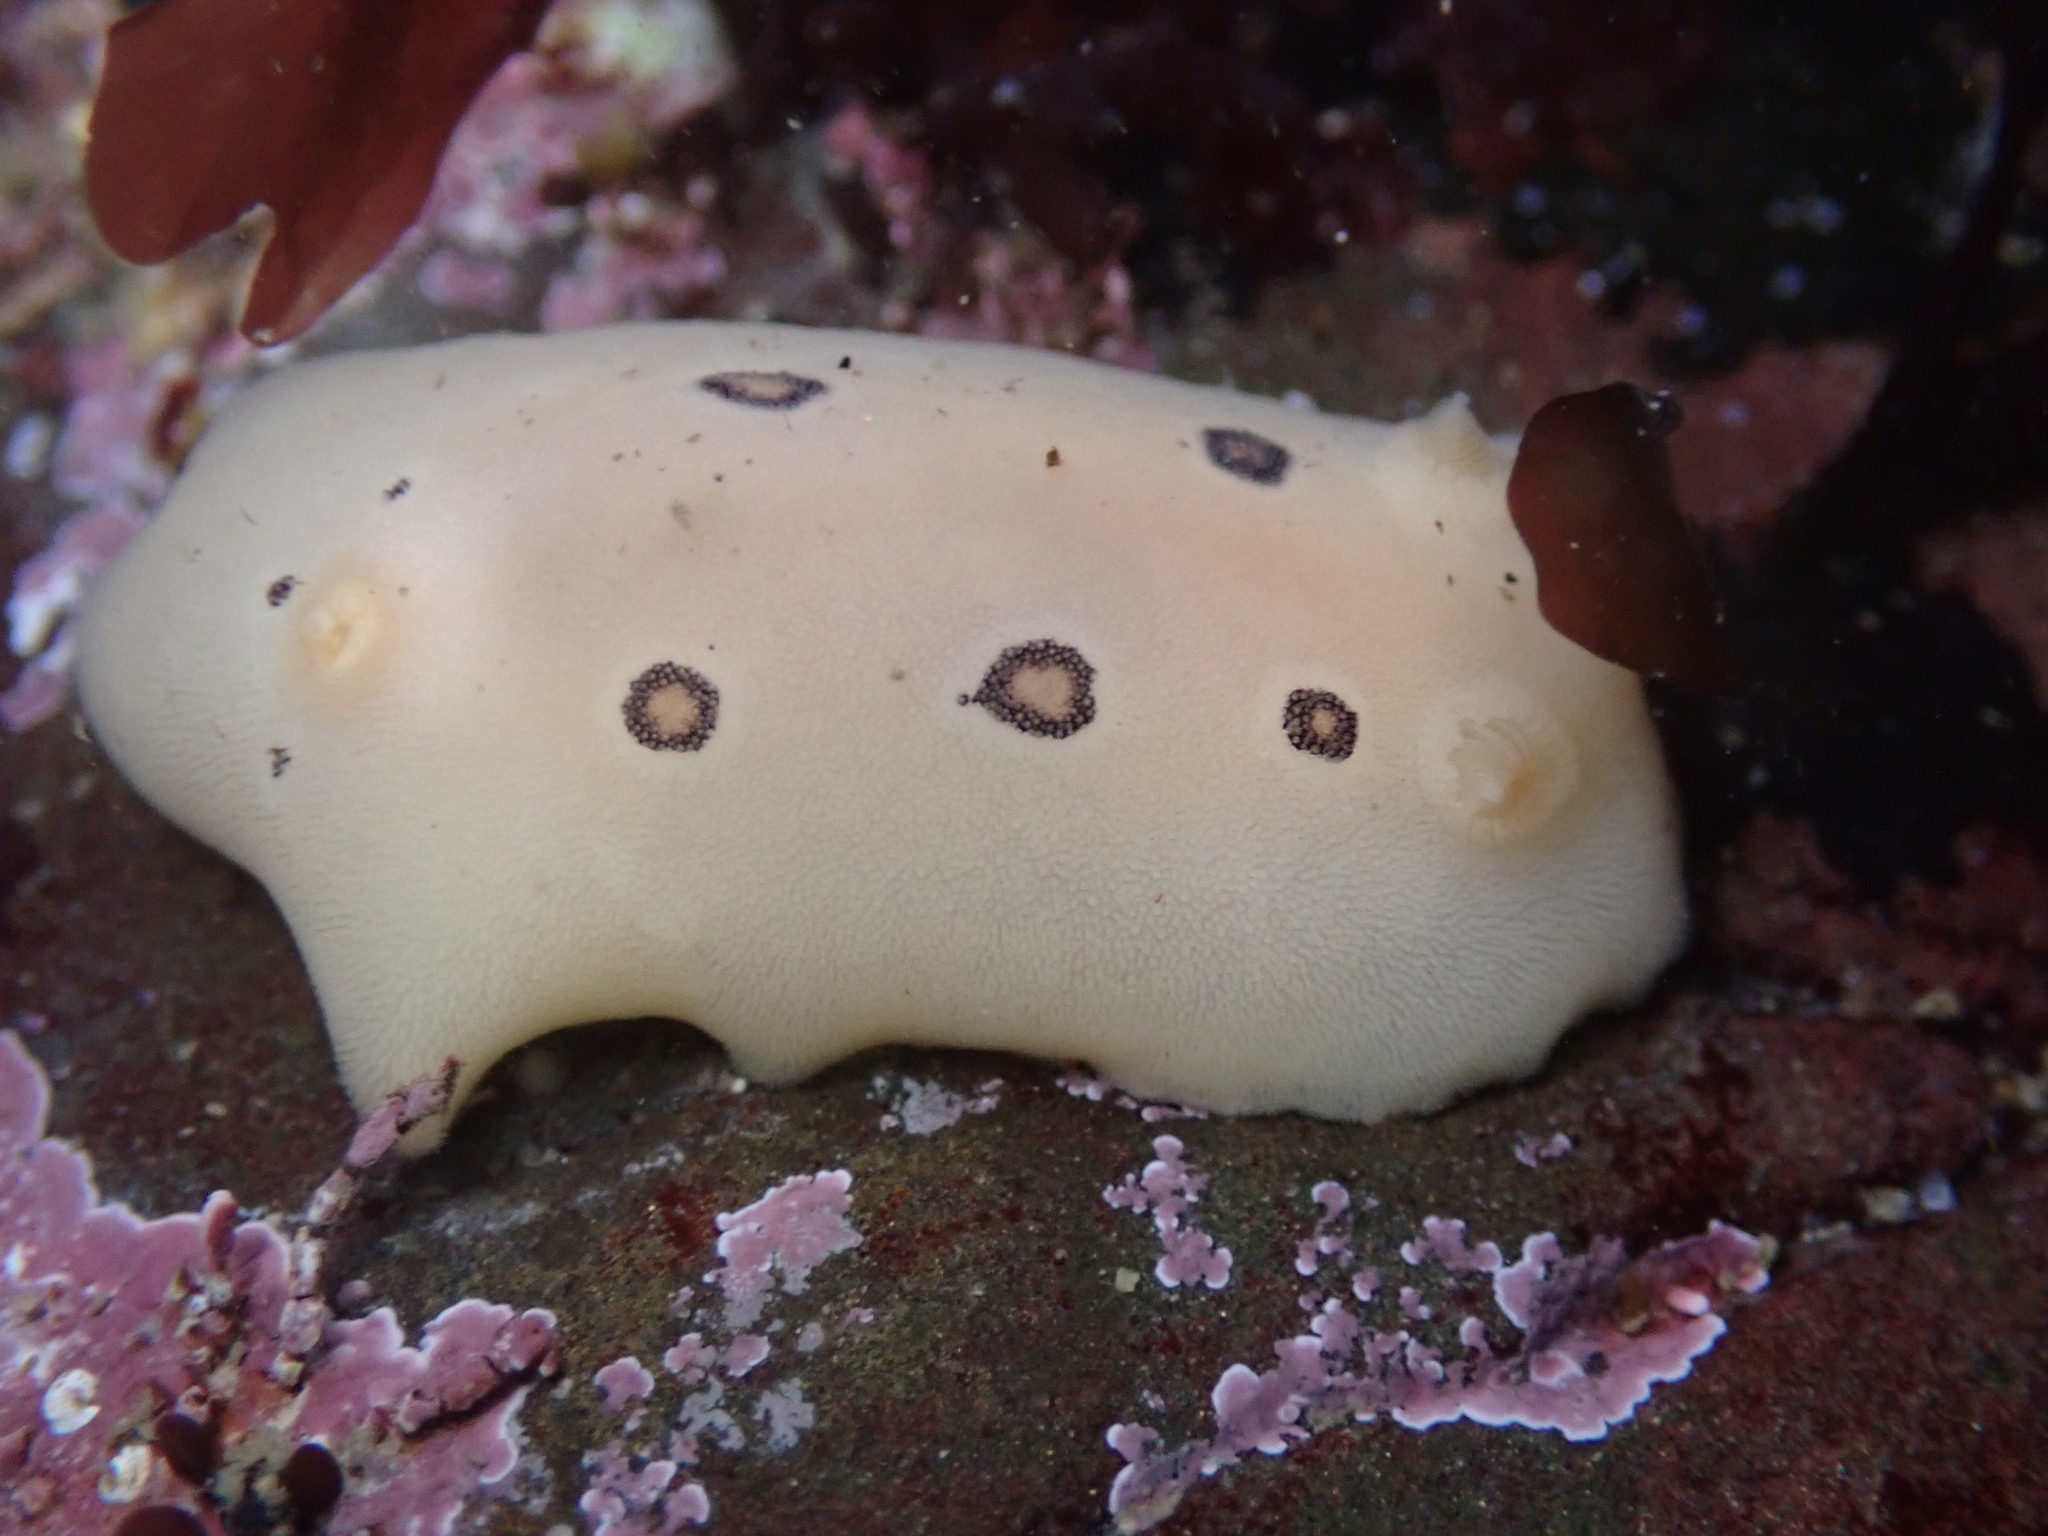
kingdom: Animalia
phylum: Mollusca
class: Gastropoda
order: Nudibranchia
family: Discodorididae
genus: Diaulula
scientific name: Diaulula sandiegensis
